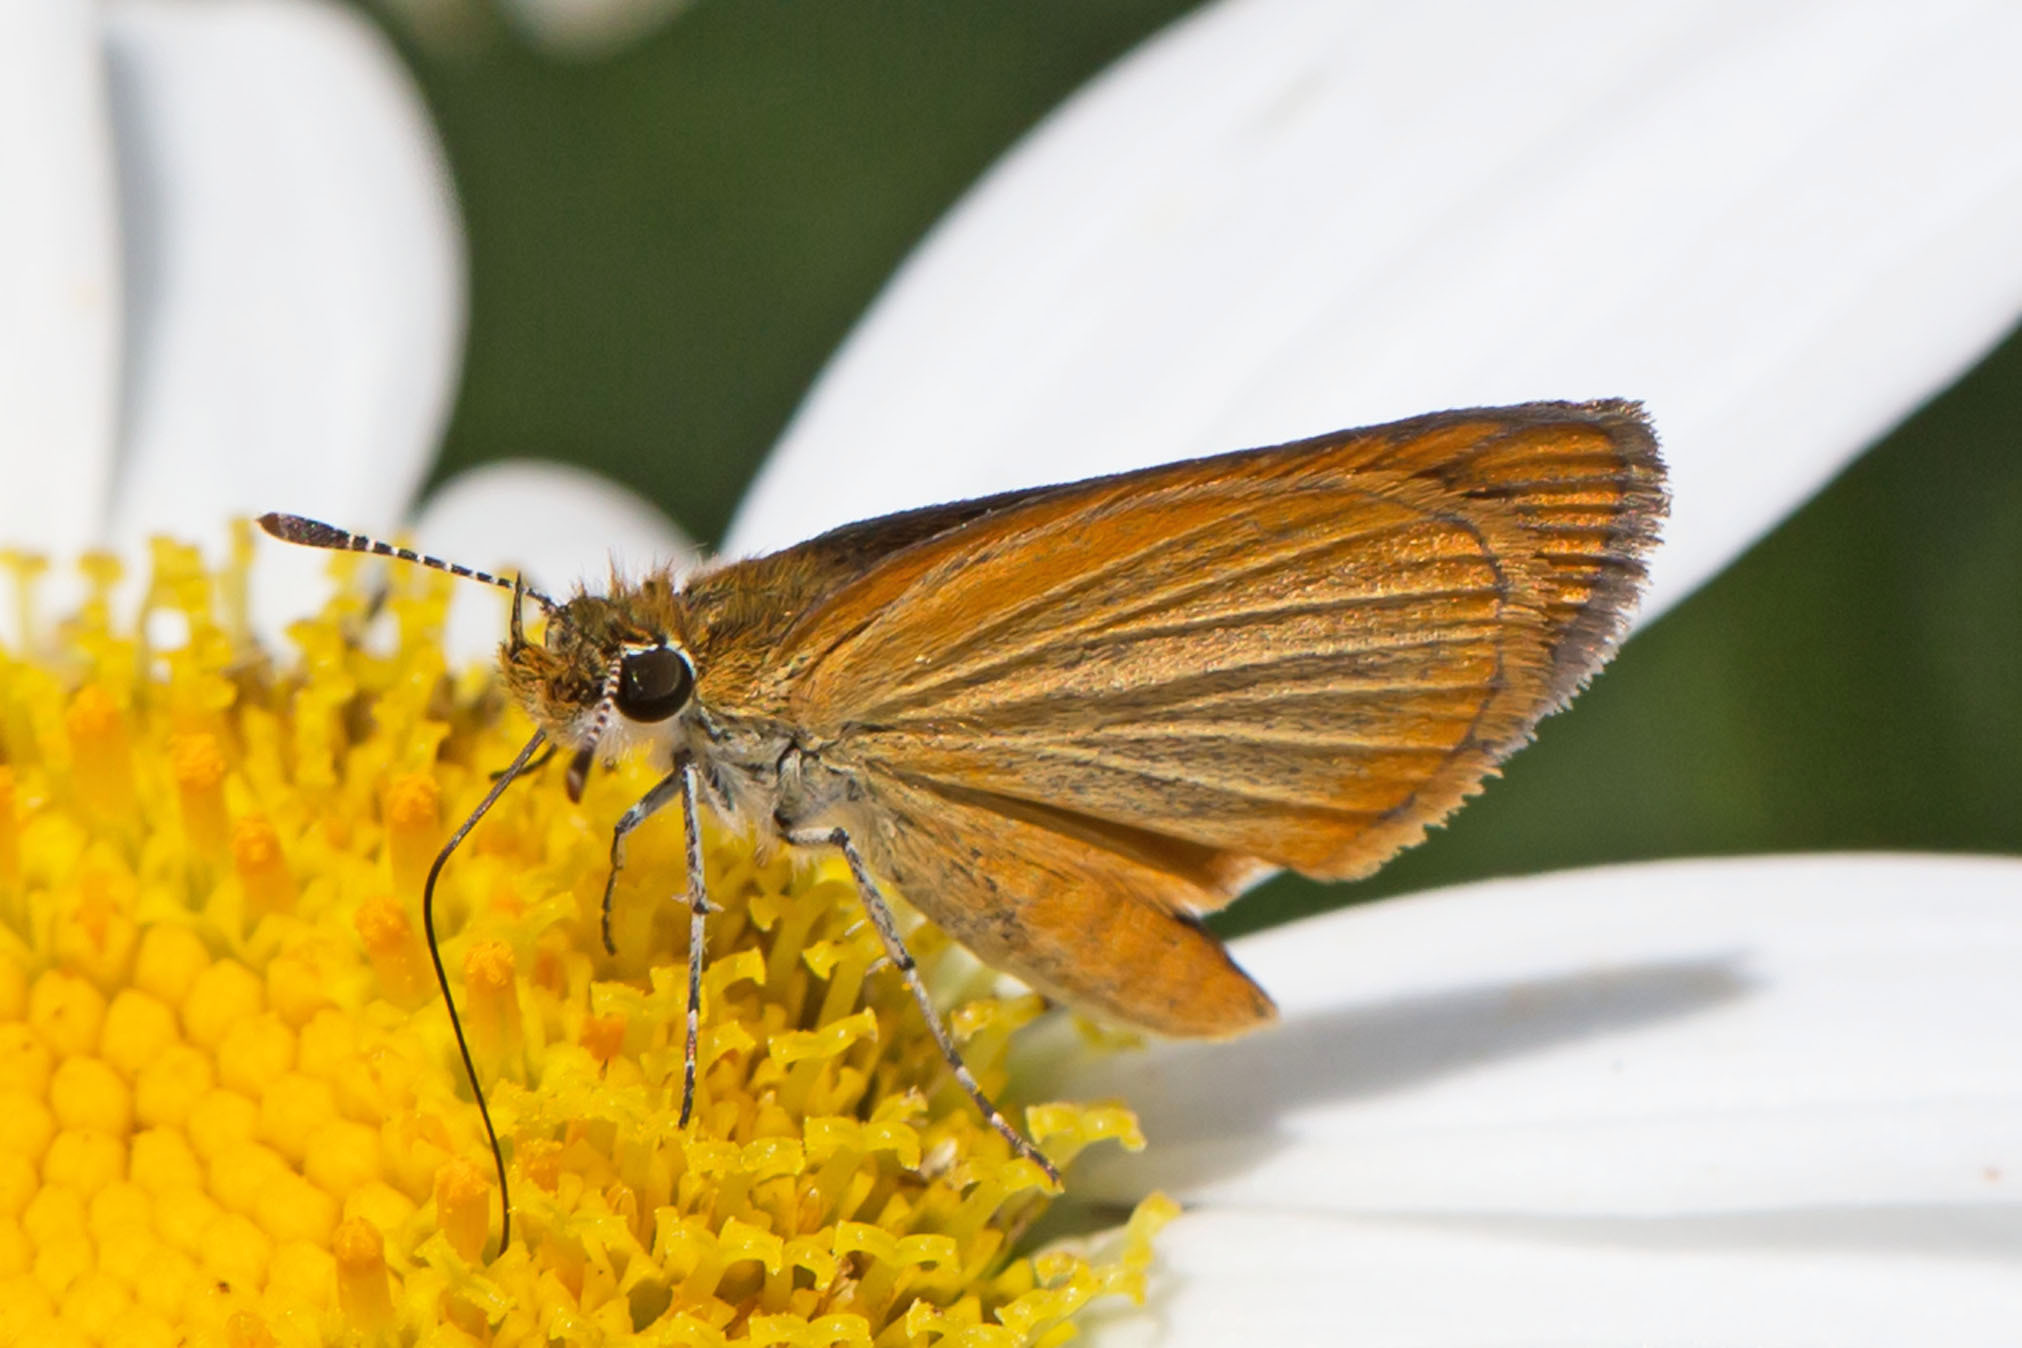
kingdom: Animalia
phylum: Arthropoda
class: Insecta
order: Lepidoptera
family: Hesperiidae
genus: Ancyloxypha
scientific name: Ancyloxypha numitor
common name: Least skipper
